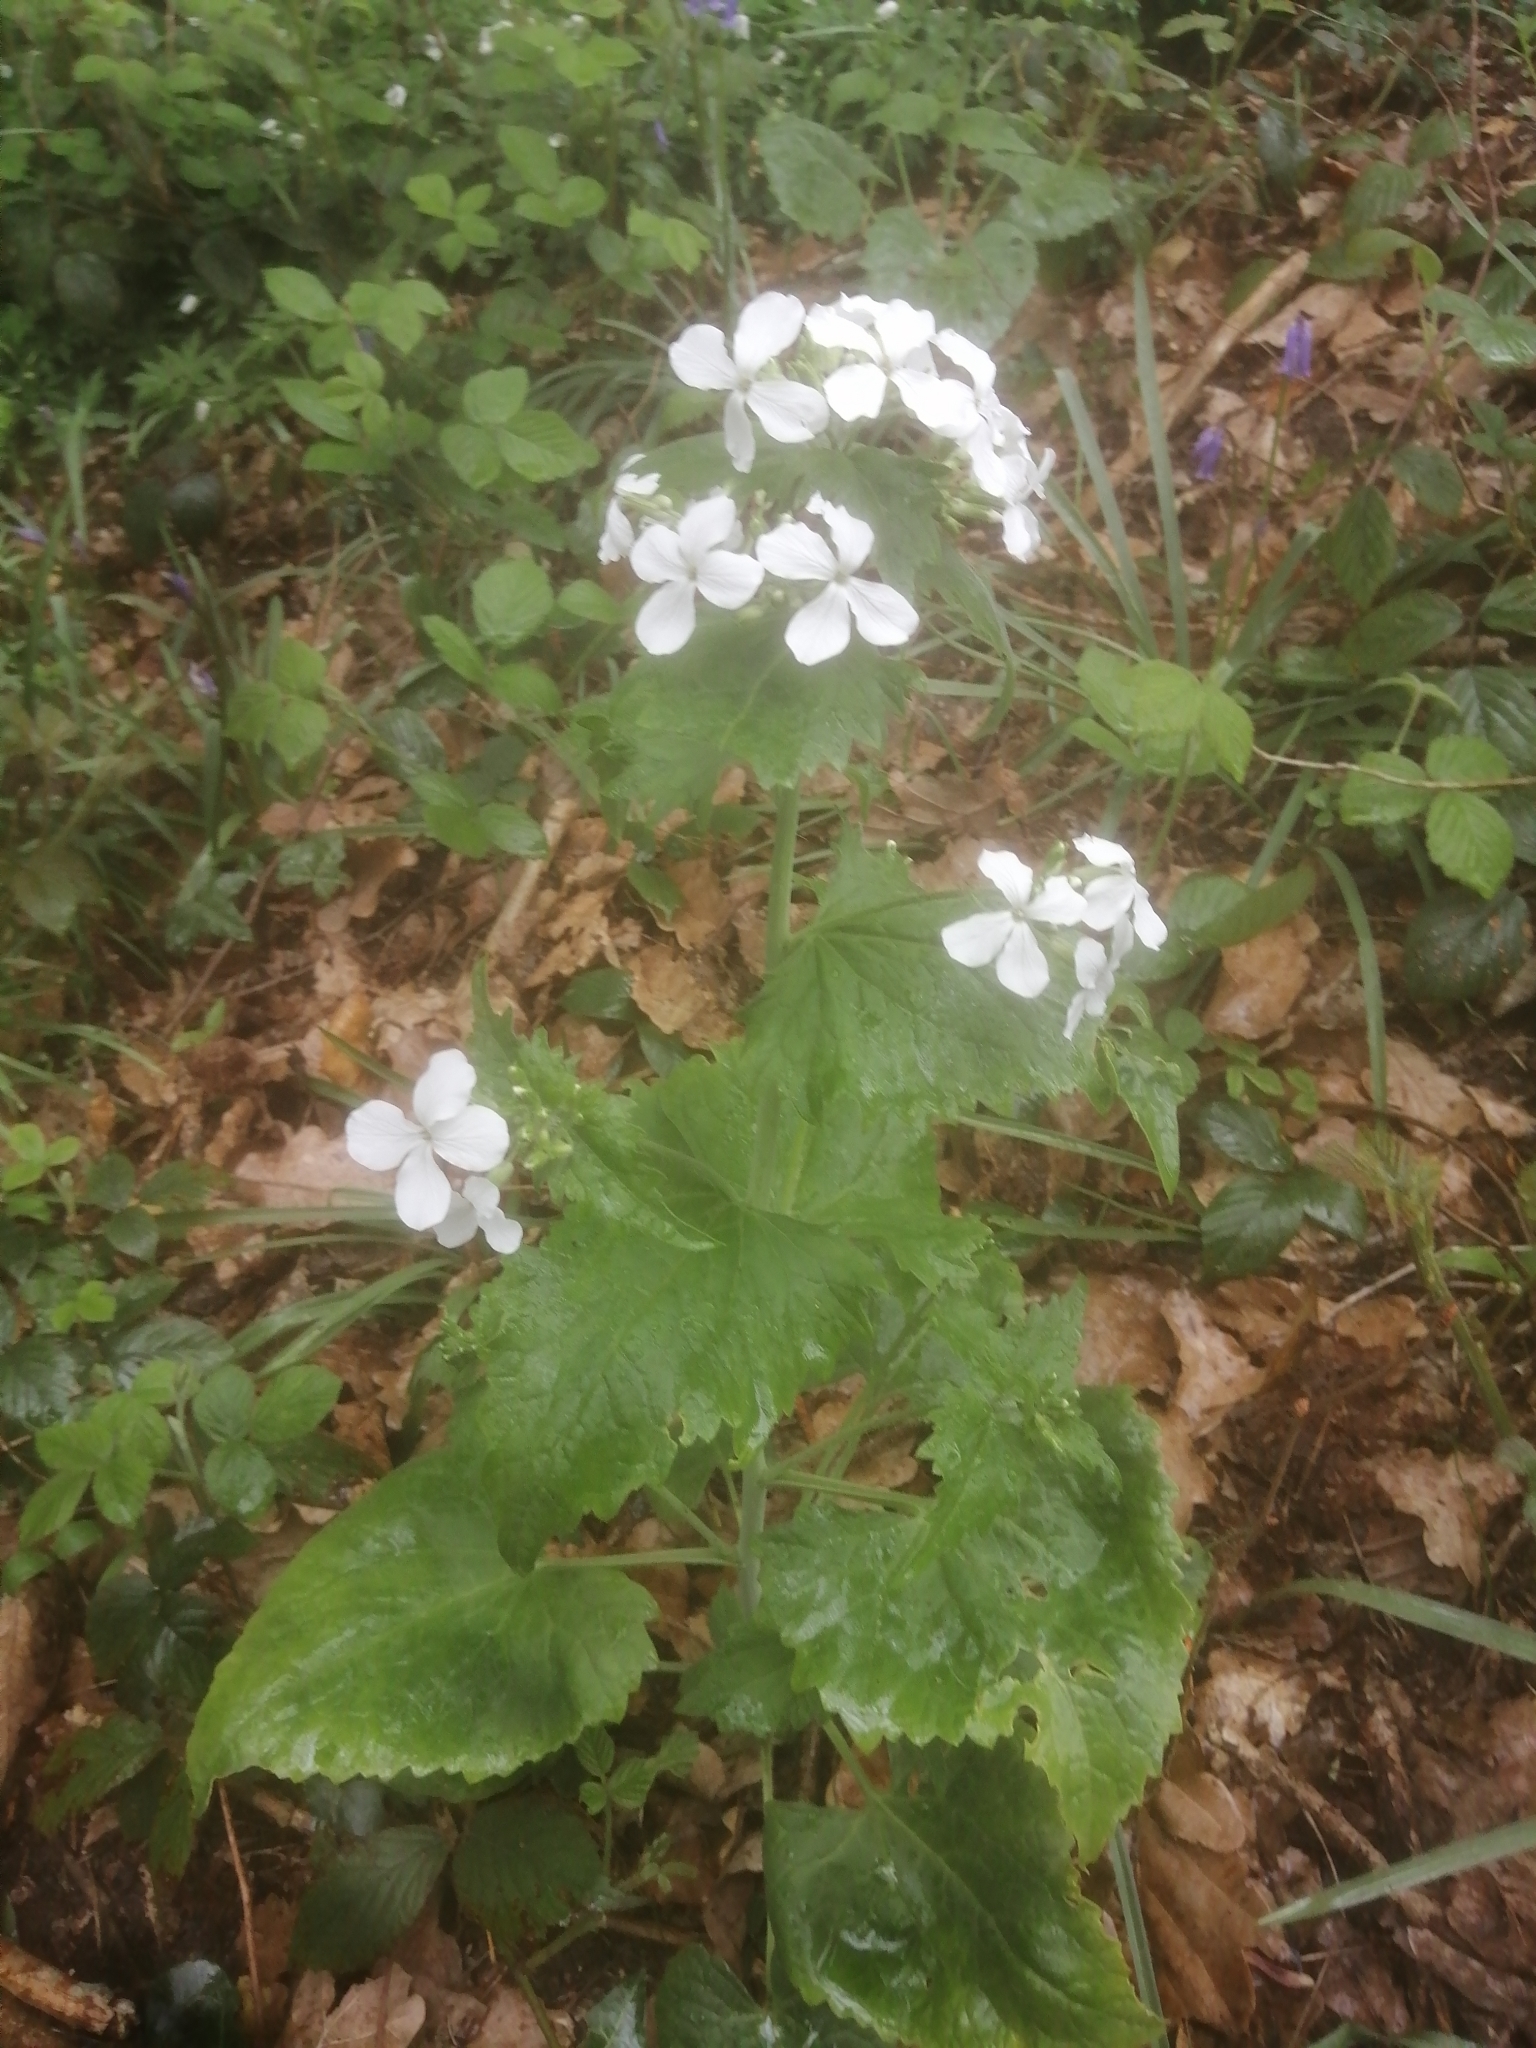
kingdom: Plantae
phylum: Tracheophyta
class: Magnoliopsida
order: Brassicales
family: Brassicaceae
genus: Lunaria
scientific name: Lunaria annua
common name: Honesty
